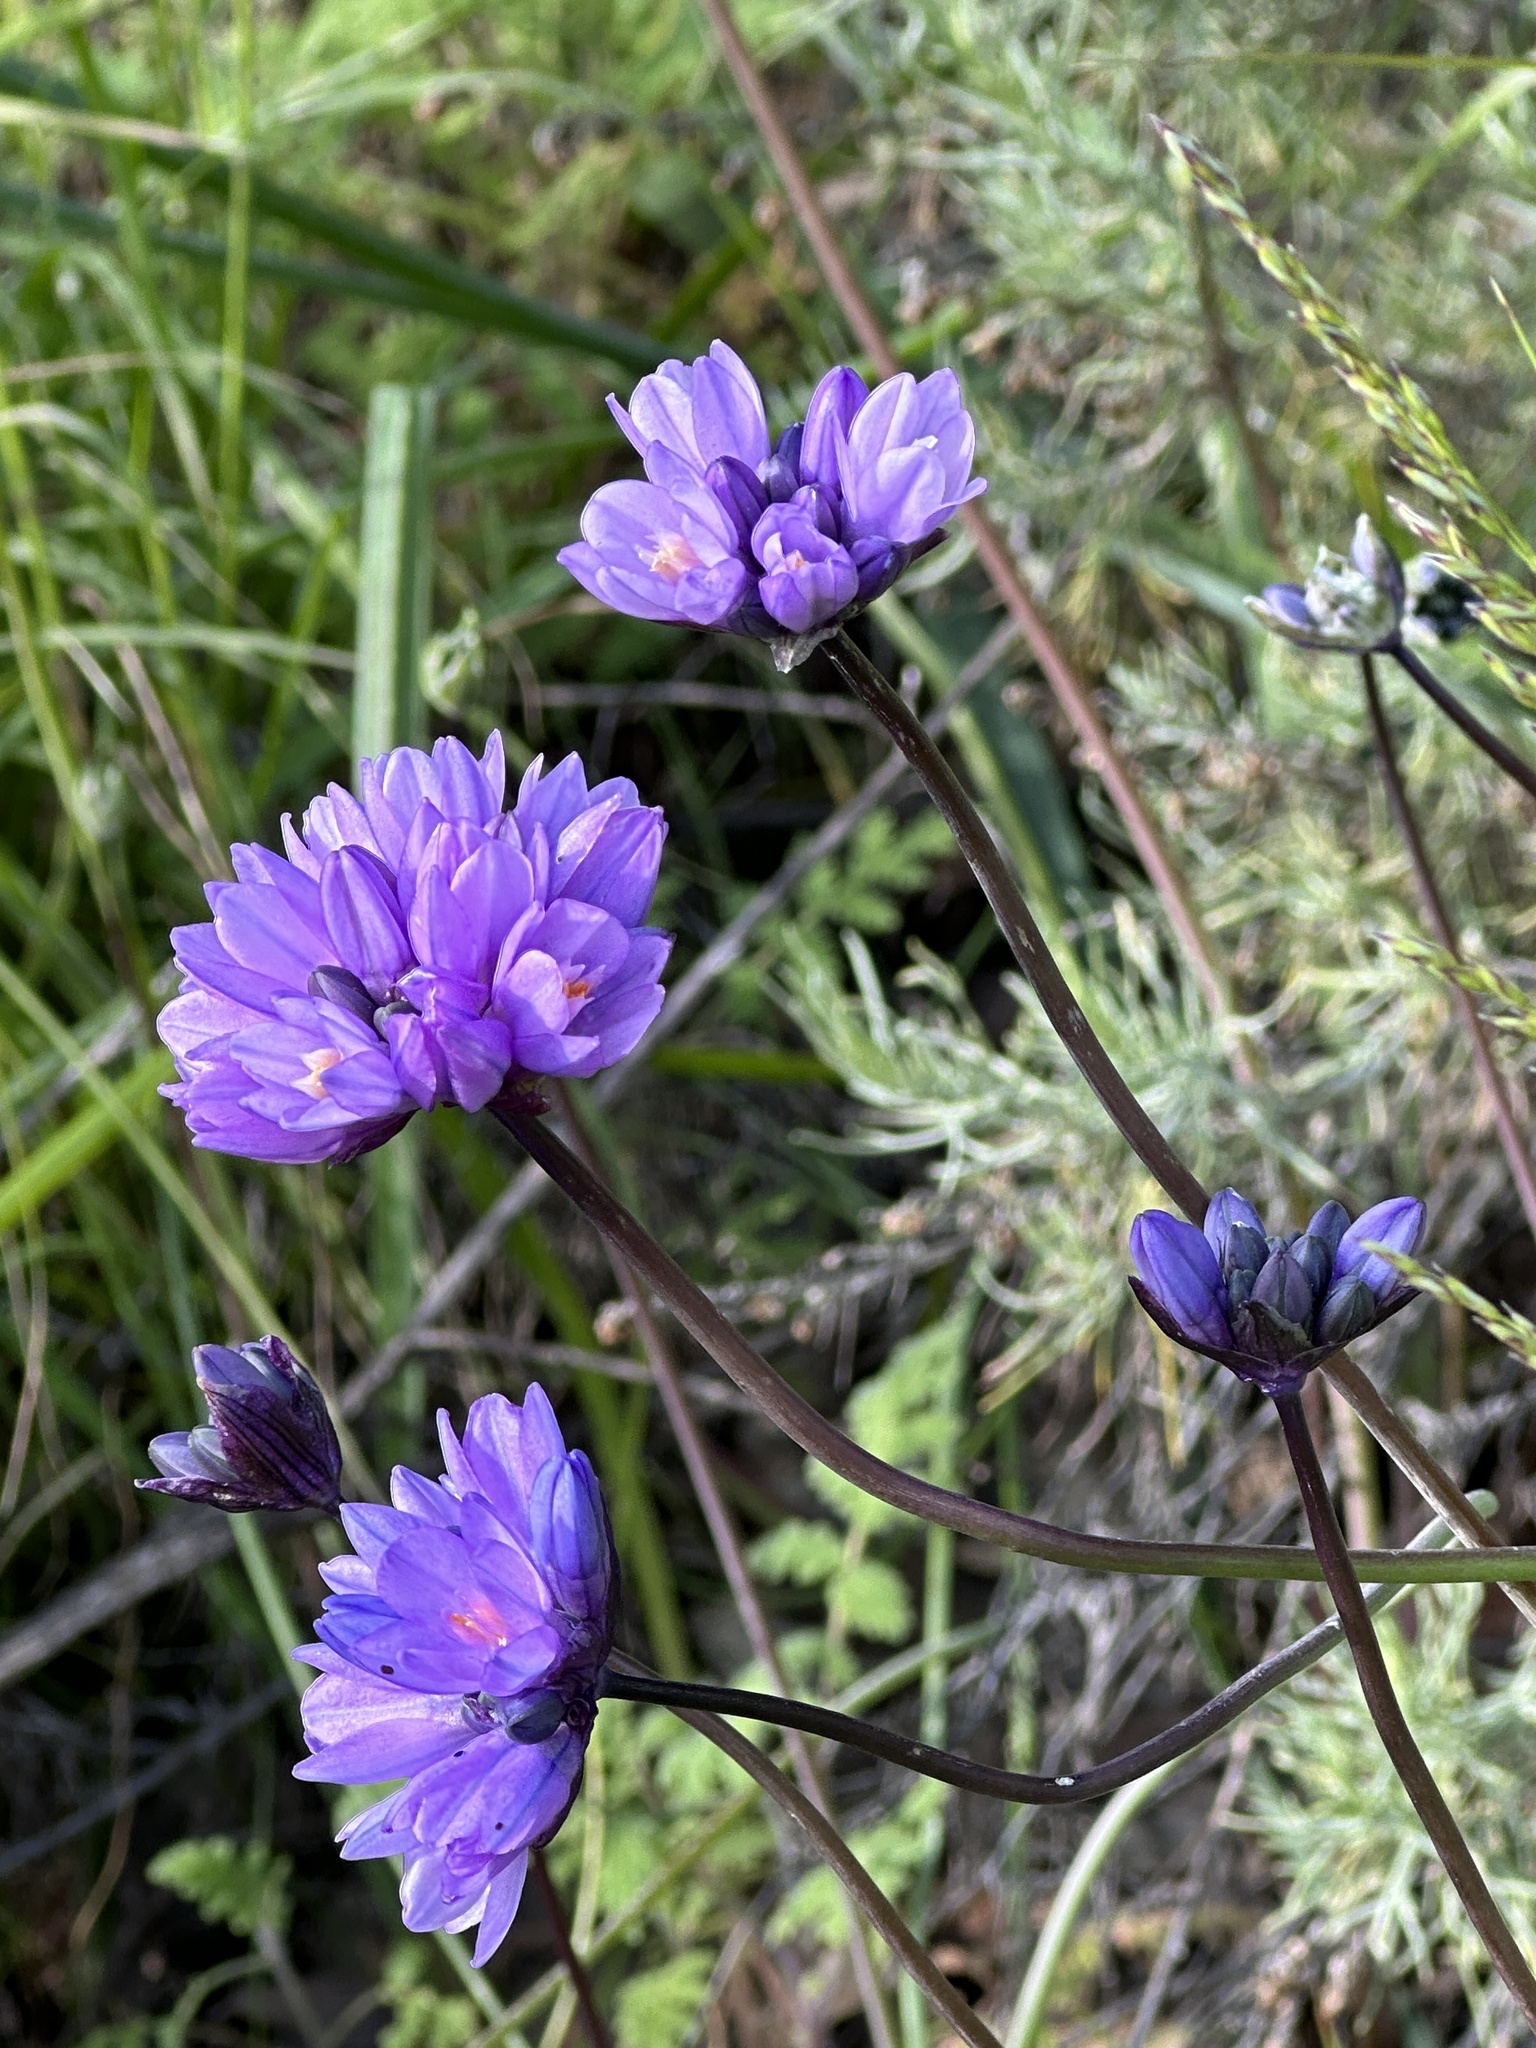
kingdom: Plantae
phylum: Tracheophyta
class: Liliopsida
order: Asparagales
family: Asparagaceae
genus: Dipterostemon
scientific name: Dipterostemon capitatus
